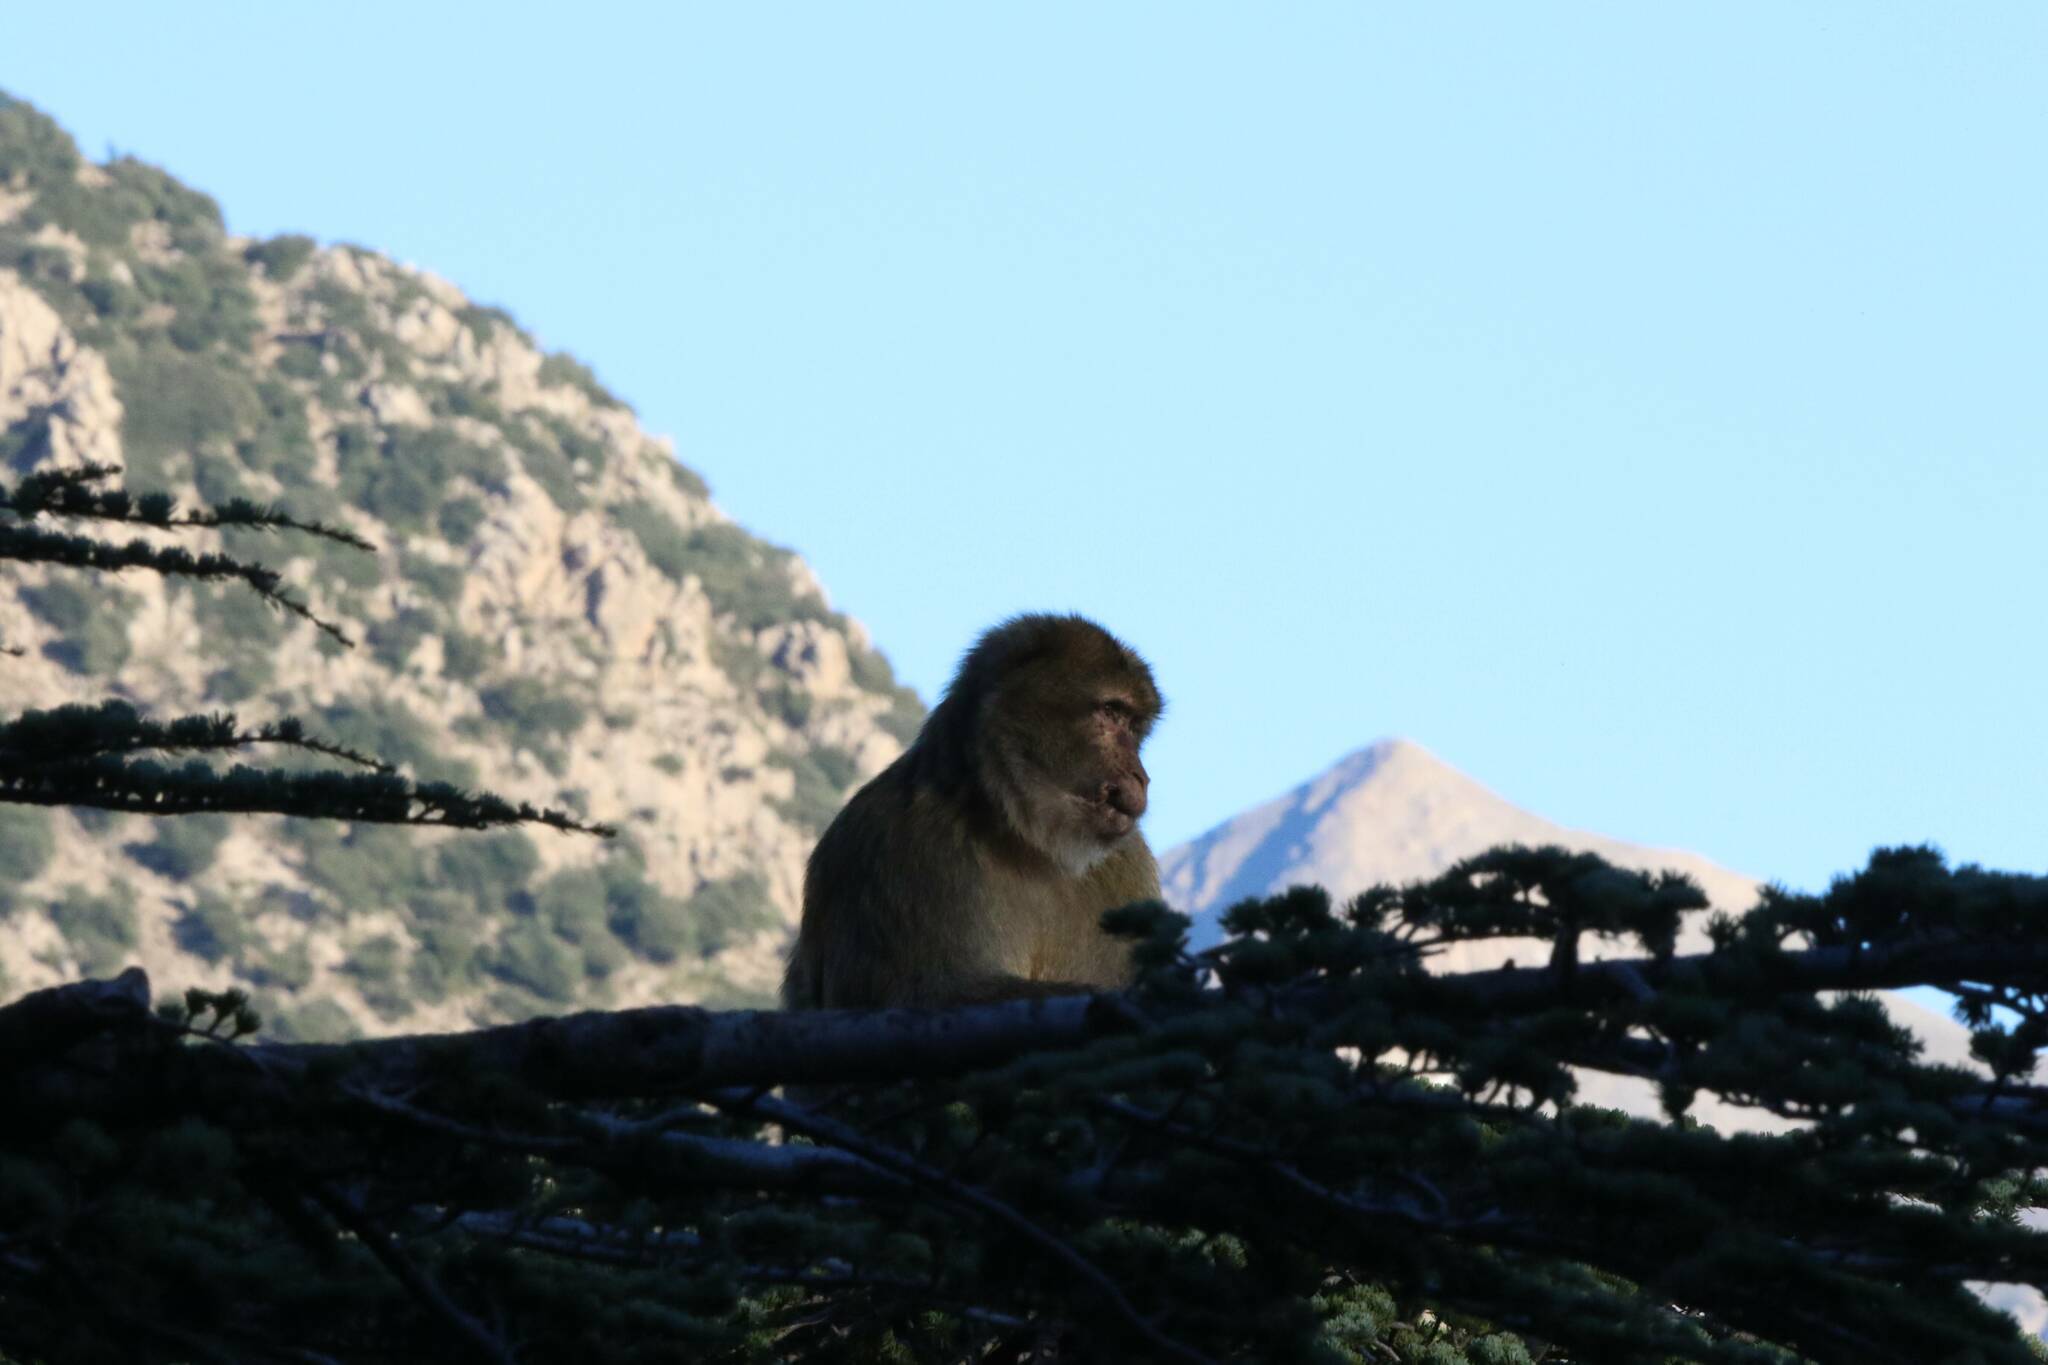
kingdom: Animalia
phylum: Chordata
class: Mammalia
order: Primates
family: Cercopithecidae
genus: Macaca
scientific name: Macaca sylvanus
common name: Barbary macaque
